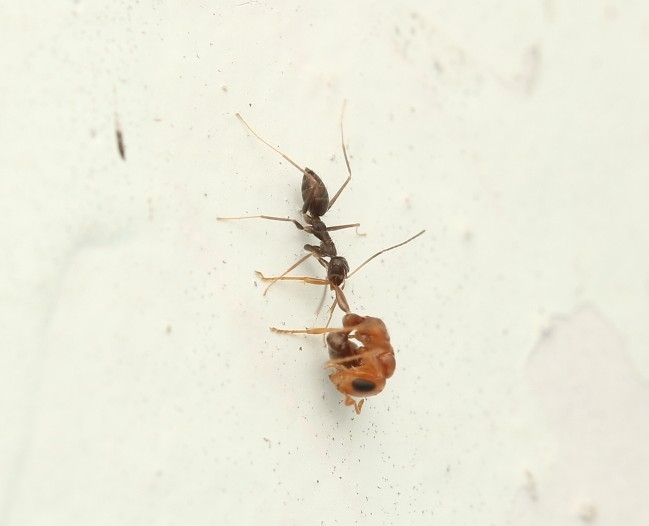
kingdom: Animalia
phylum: Arthropoda
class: Insecta
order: Hymenoptera
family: Formicidae
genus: Paratrechina
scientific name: Paratrechina longicornis
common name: Longhorned crazy ant
